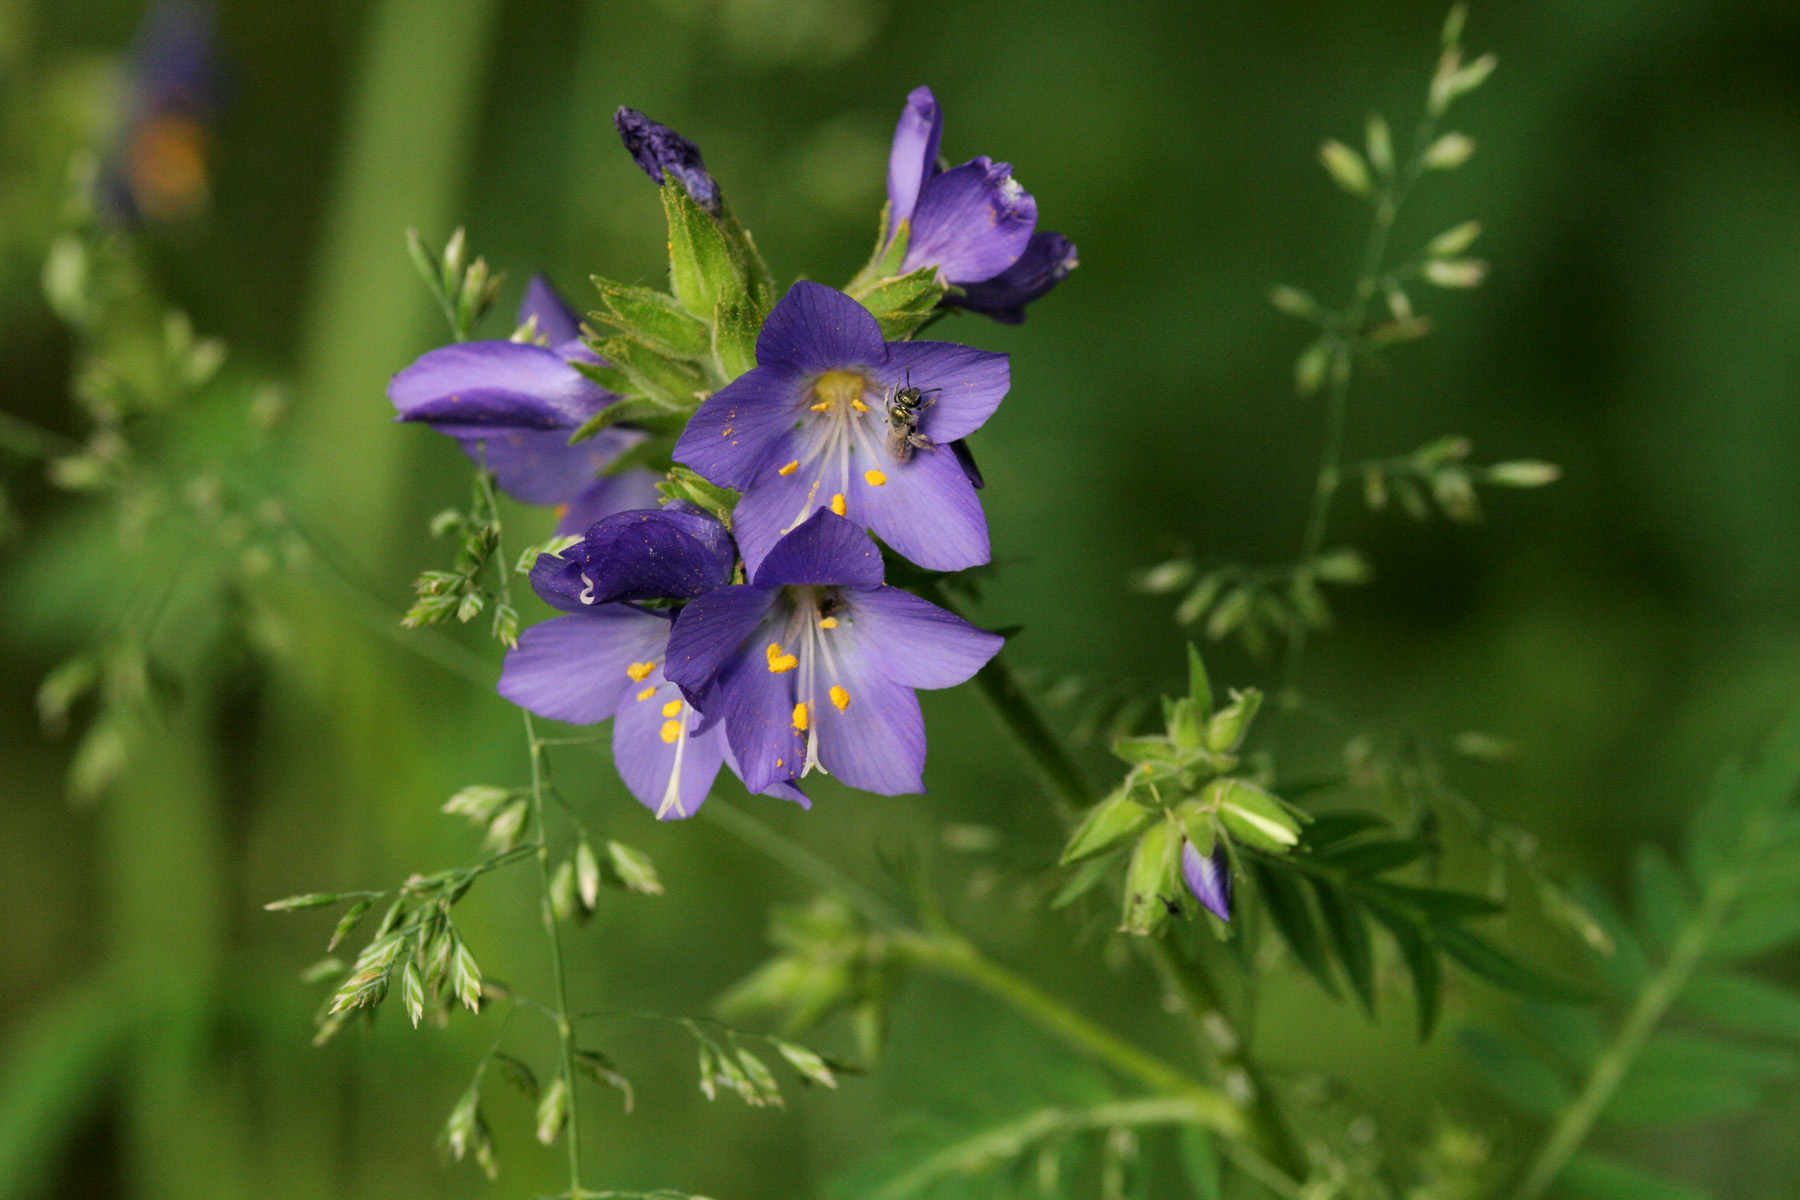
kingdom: Plantae
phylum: Tracheophyta
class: Magnoliopsida
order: Ericales
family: Polemoniaceae
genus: Polemonium
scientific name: Polemonium foliosissimum
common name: Leafy jacob's-ladder
